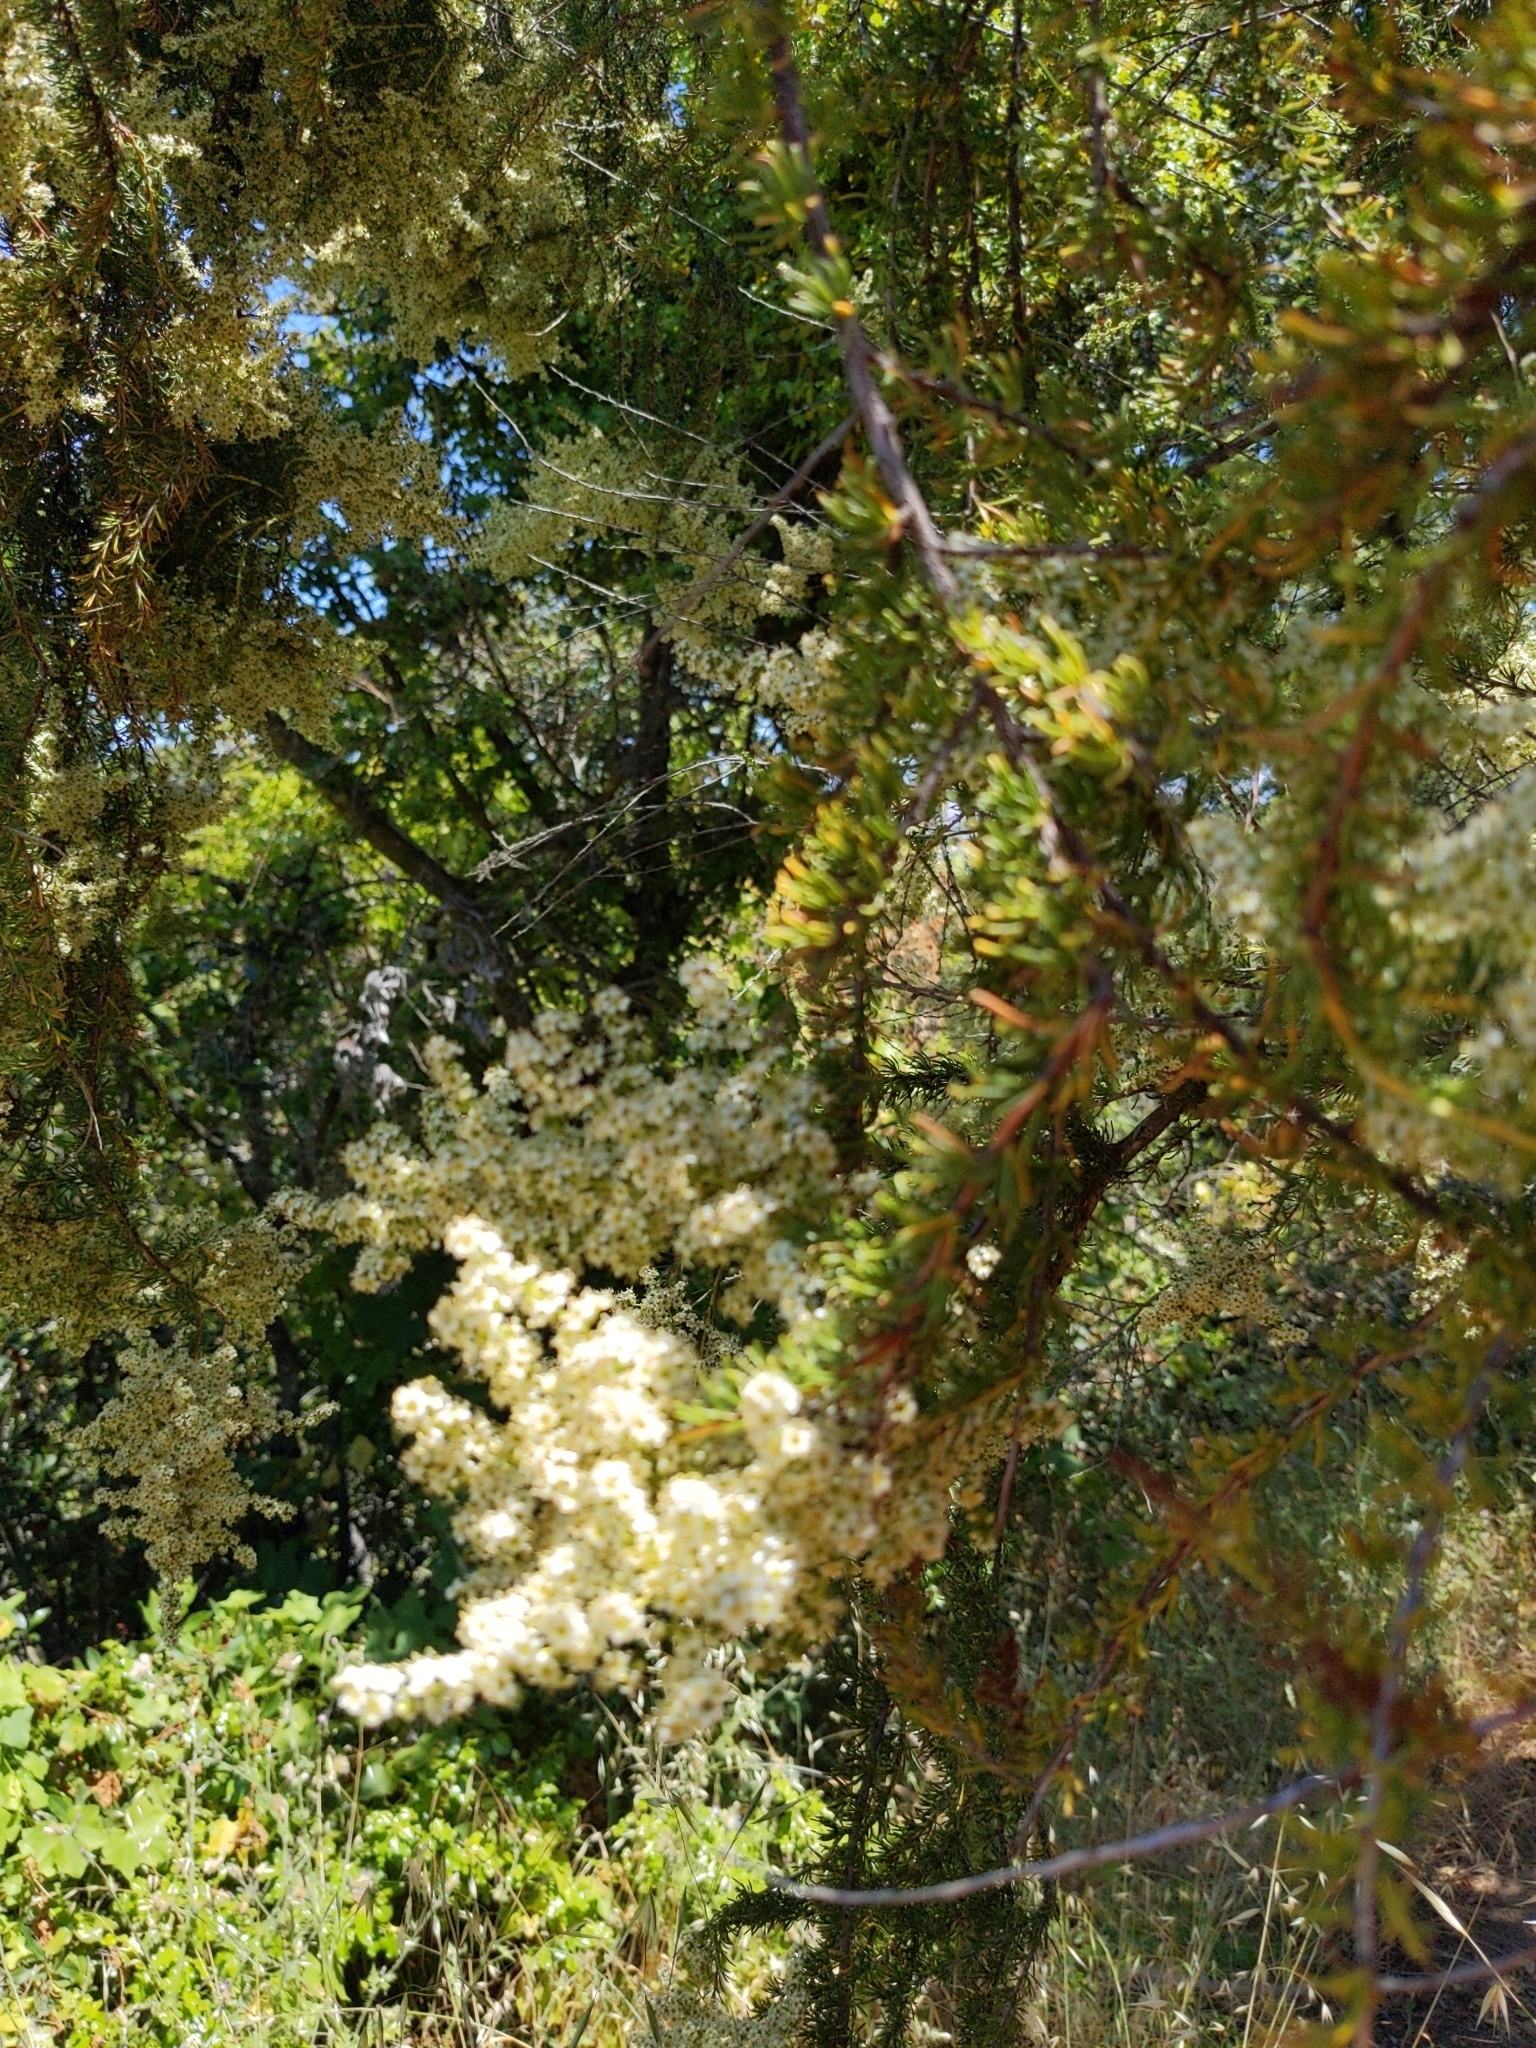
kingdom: Plantae
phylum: Tracheophyta
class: Magnoliopsida
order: Rosales
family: Rosaceae
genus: Adenostoma
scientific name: Adenostoma fasciculatum
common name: Chamise
